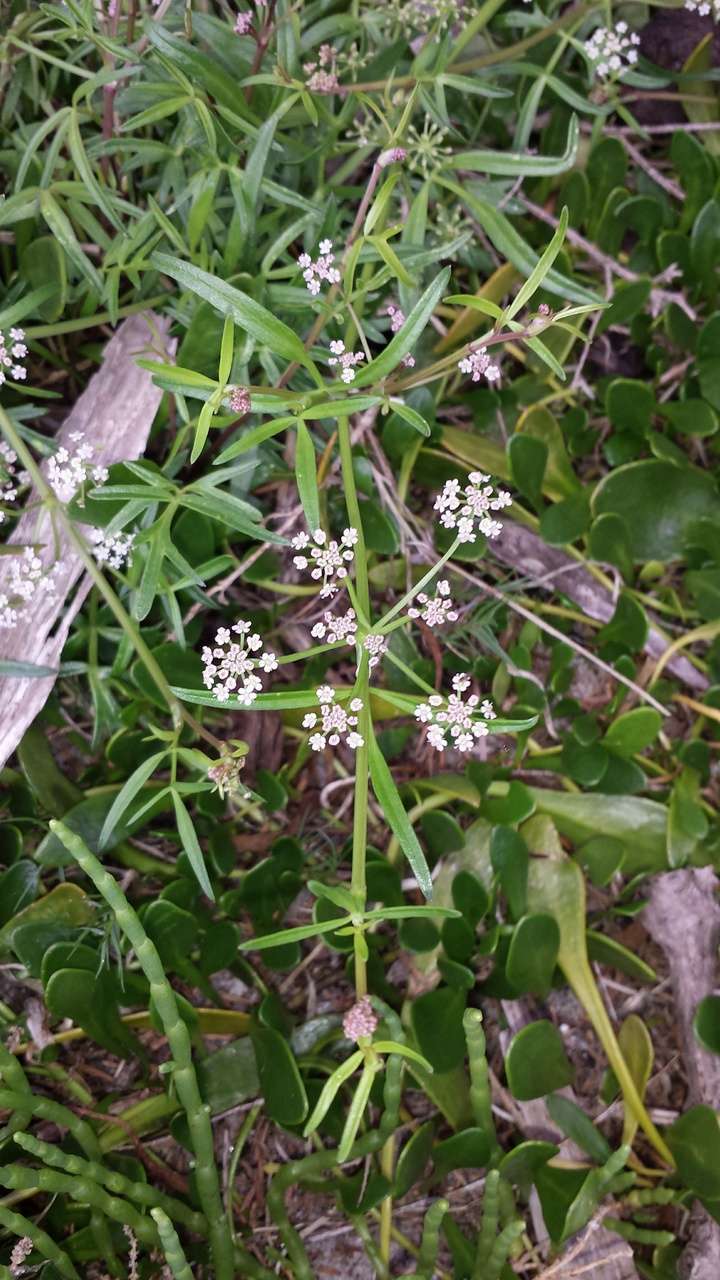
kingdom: Plantae
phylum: Tracheophyta
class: Magnoliopsida
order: Apiales
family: Apiaceae
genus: Apium
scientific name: Apium prostratum
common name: Prostrate marshwort
